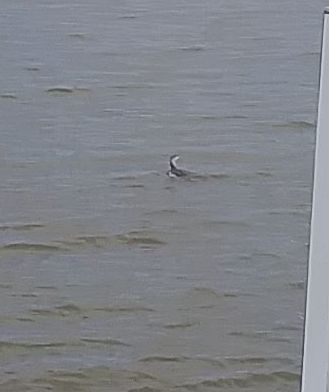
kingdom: Animalia
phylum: Chordata
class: Aves
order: Gaviiformes
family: Gaviidae
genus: Gavia
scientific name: Gavia stellata
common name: Red-throated loon
